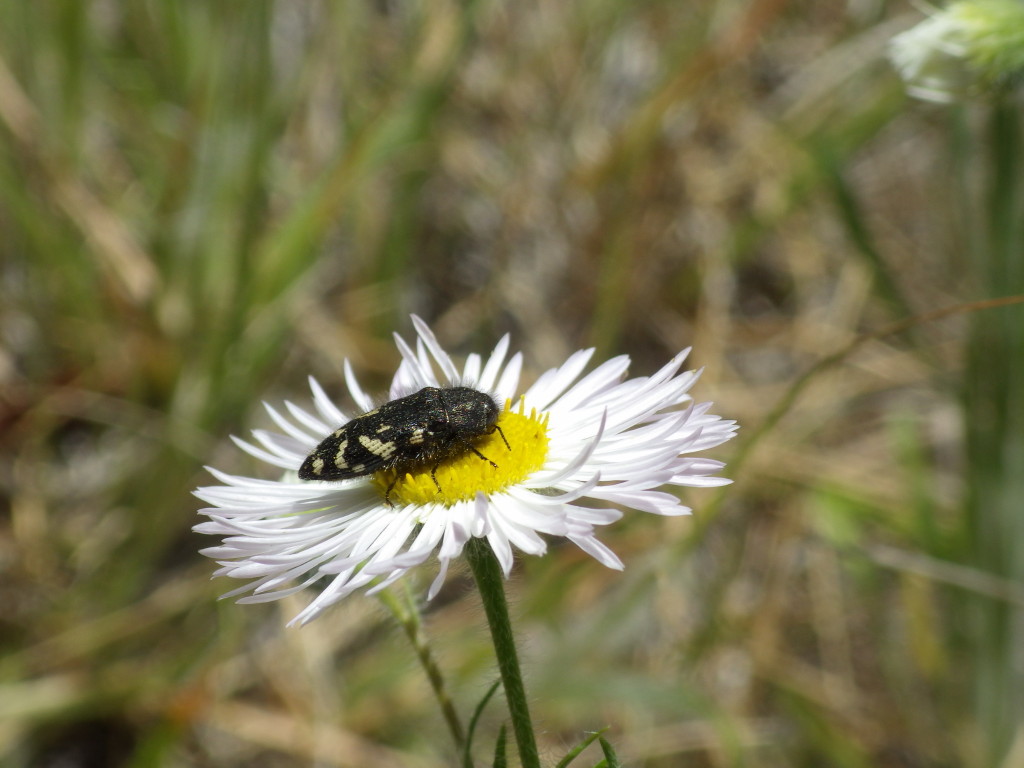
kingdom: Animalia
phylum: Arthropoda
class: Insecta
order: Coleoptera
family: Buprestidae
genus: Acmaeodera
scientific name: Acmaeodera idahoensis
